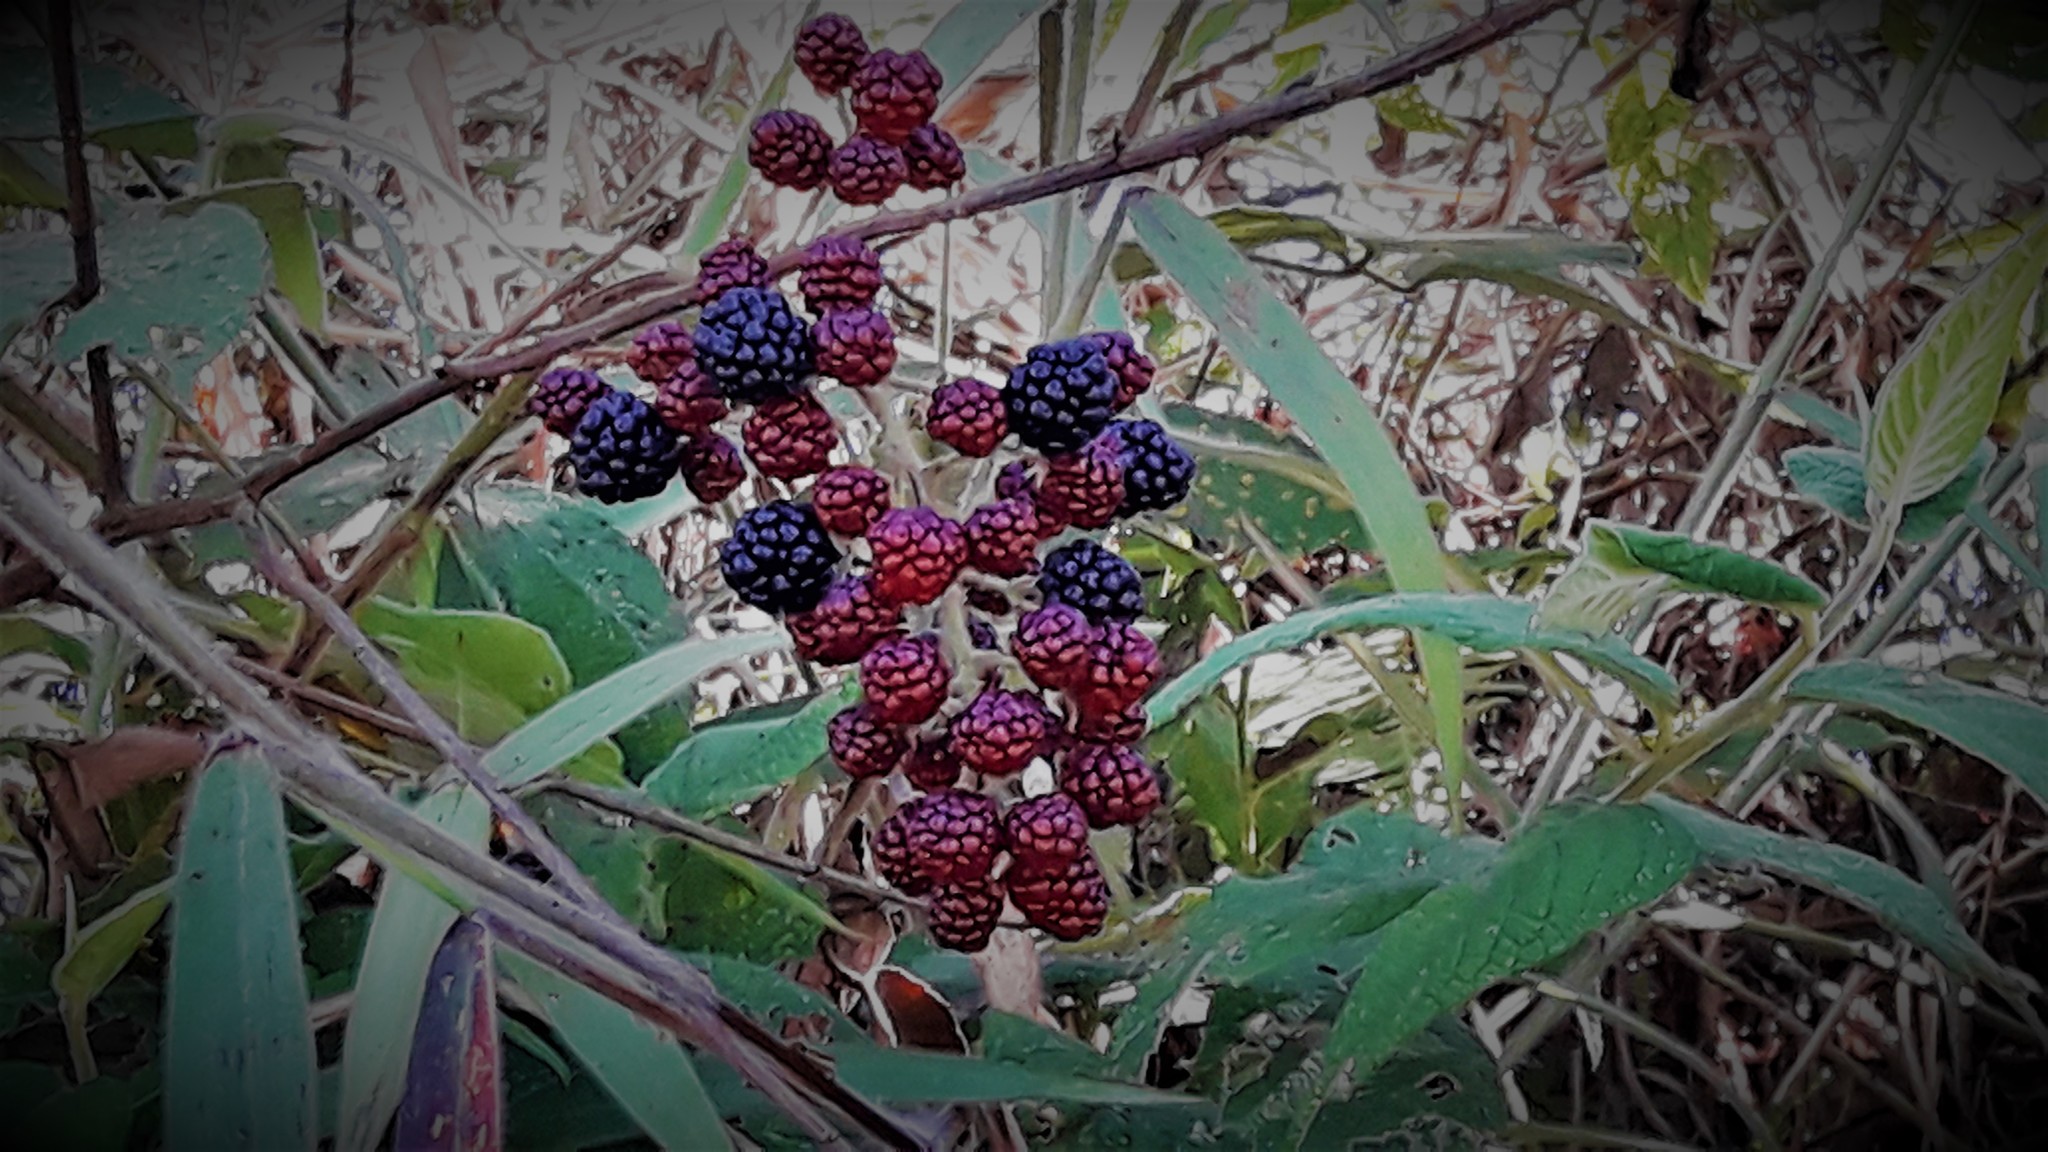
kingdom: Plantae
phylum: Tracheophyta
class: Magnoliopsida
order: Rosales
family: Rosaceae
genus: Rubus
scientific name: Rubus urticifolius
